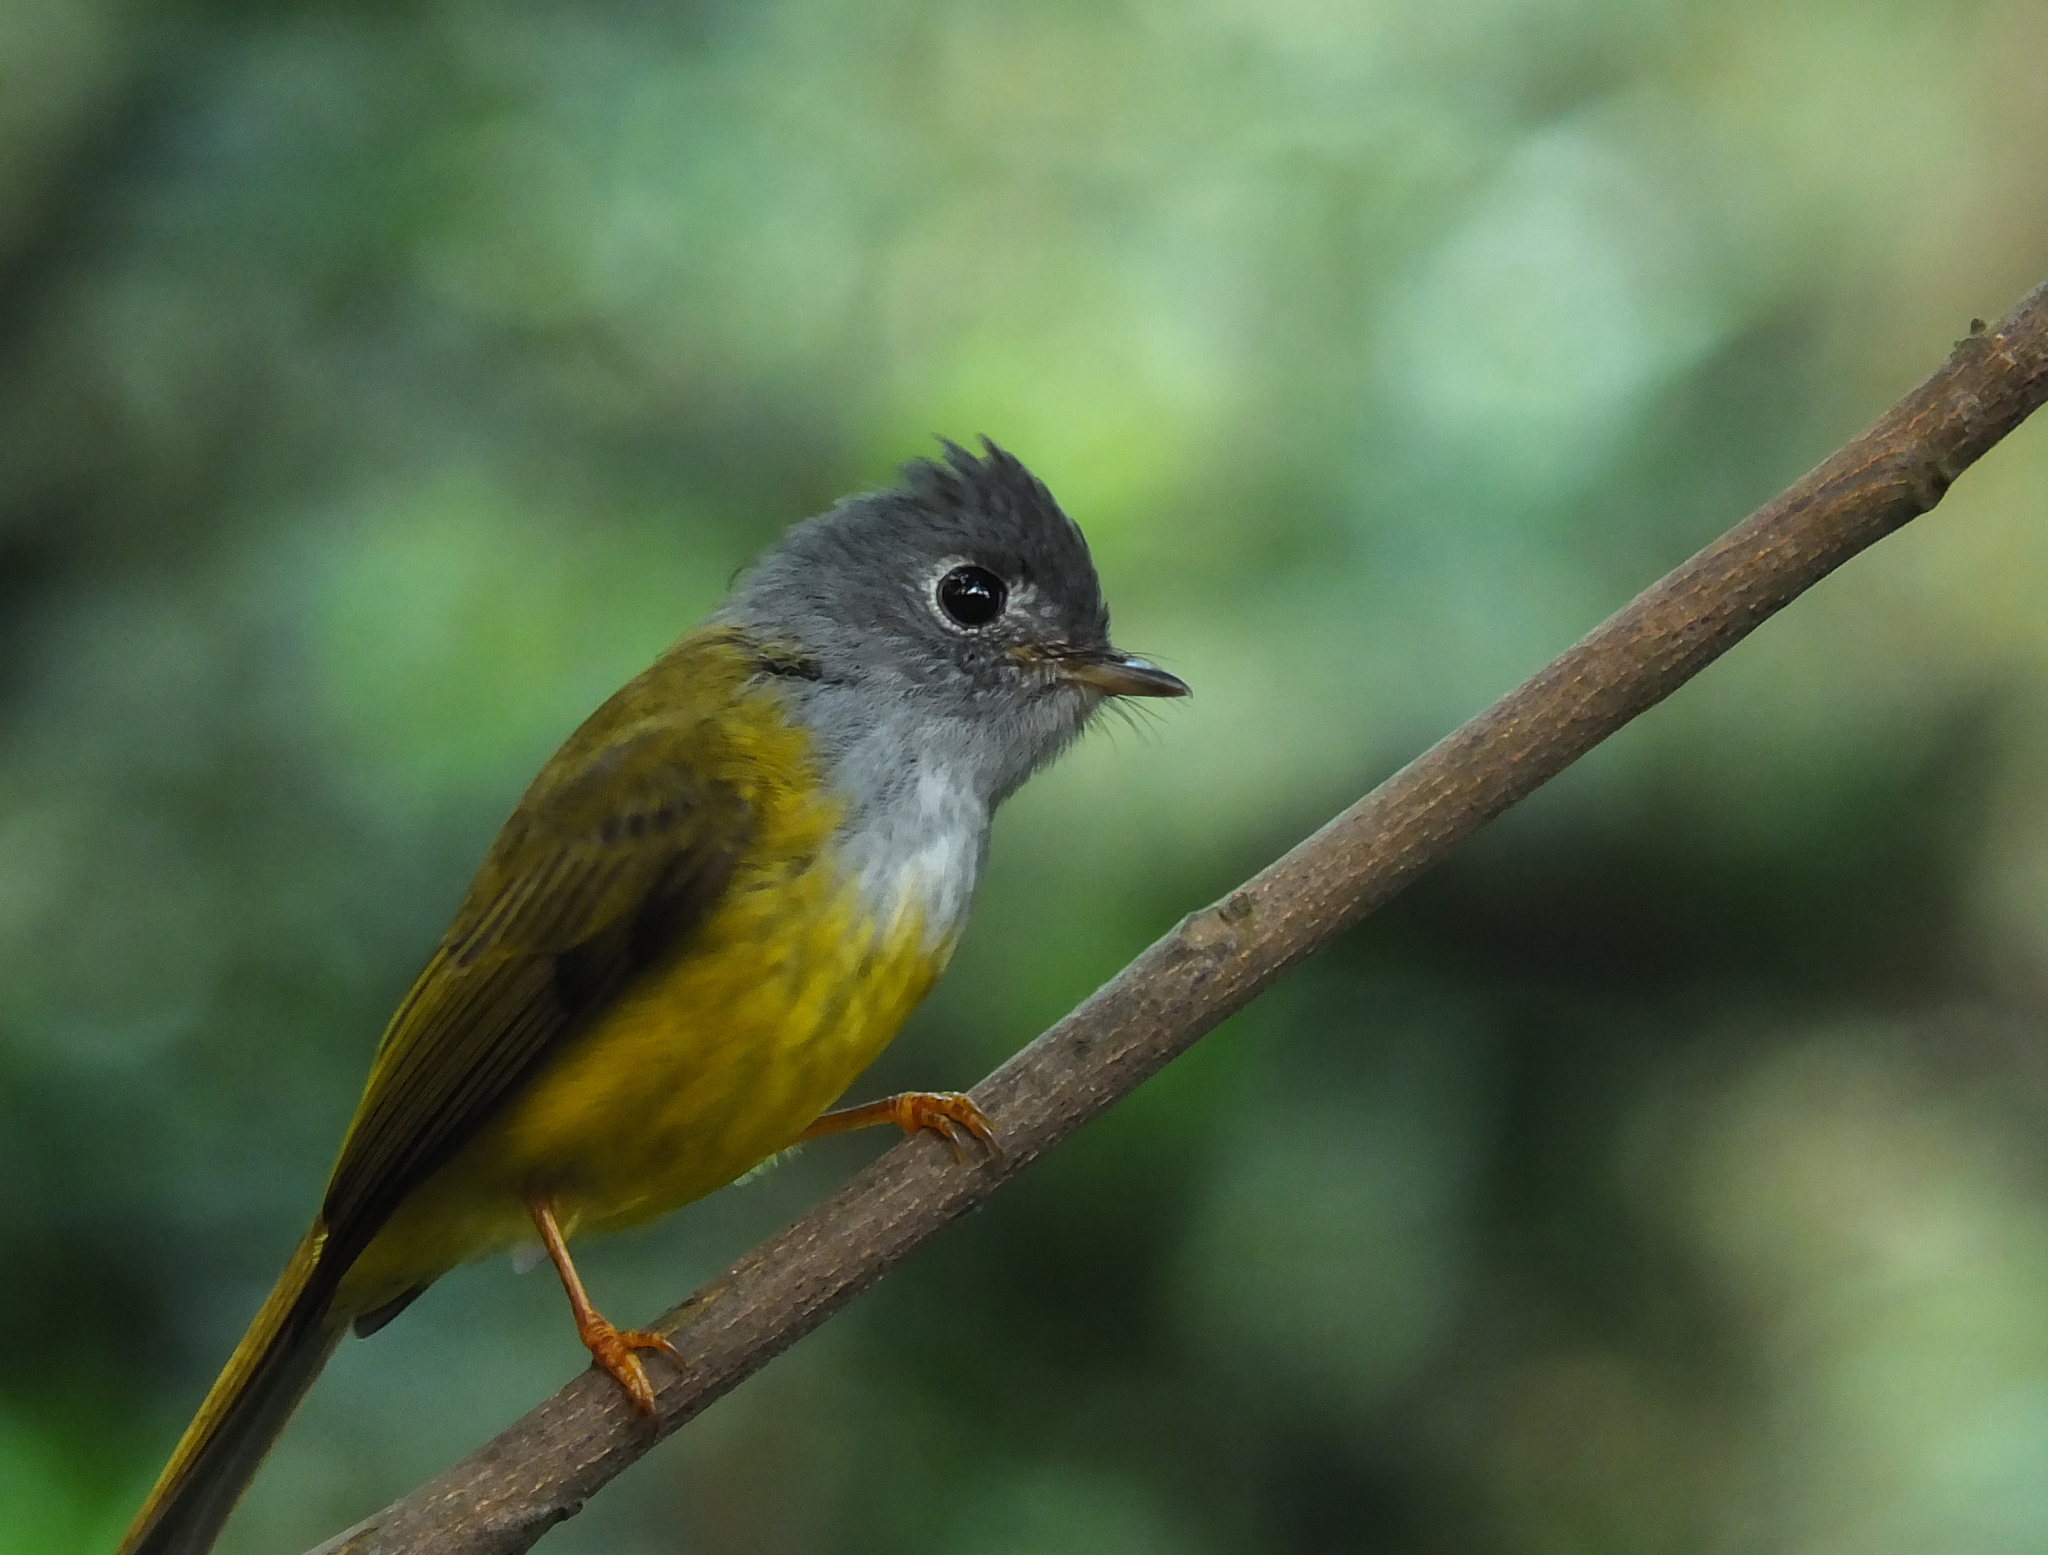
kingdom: Animalia
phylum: Chordata
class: Aves
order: Passeriformes
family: Stenostiridae
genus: Culicicapa
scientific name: Culicicapa ceylonensis
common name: Grey-headed canary-flycatcher
